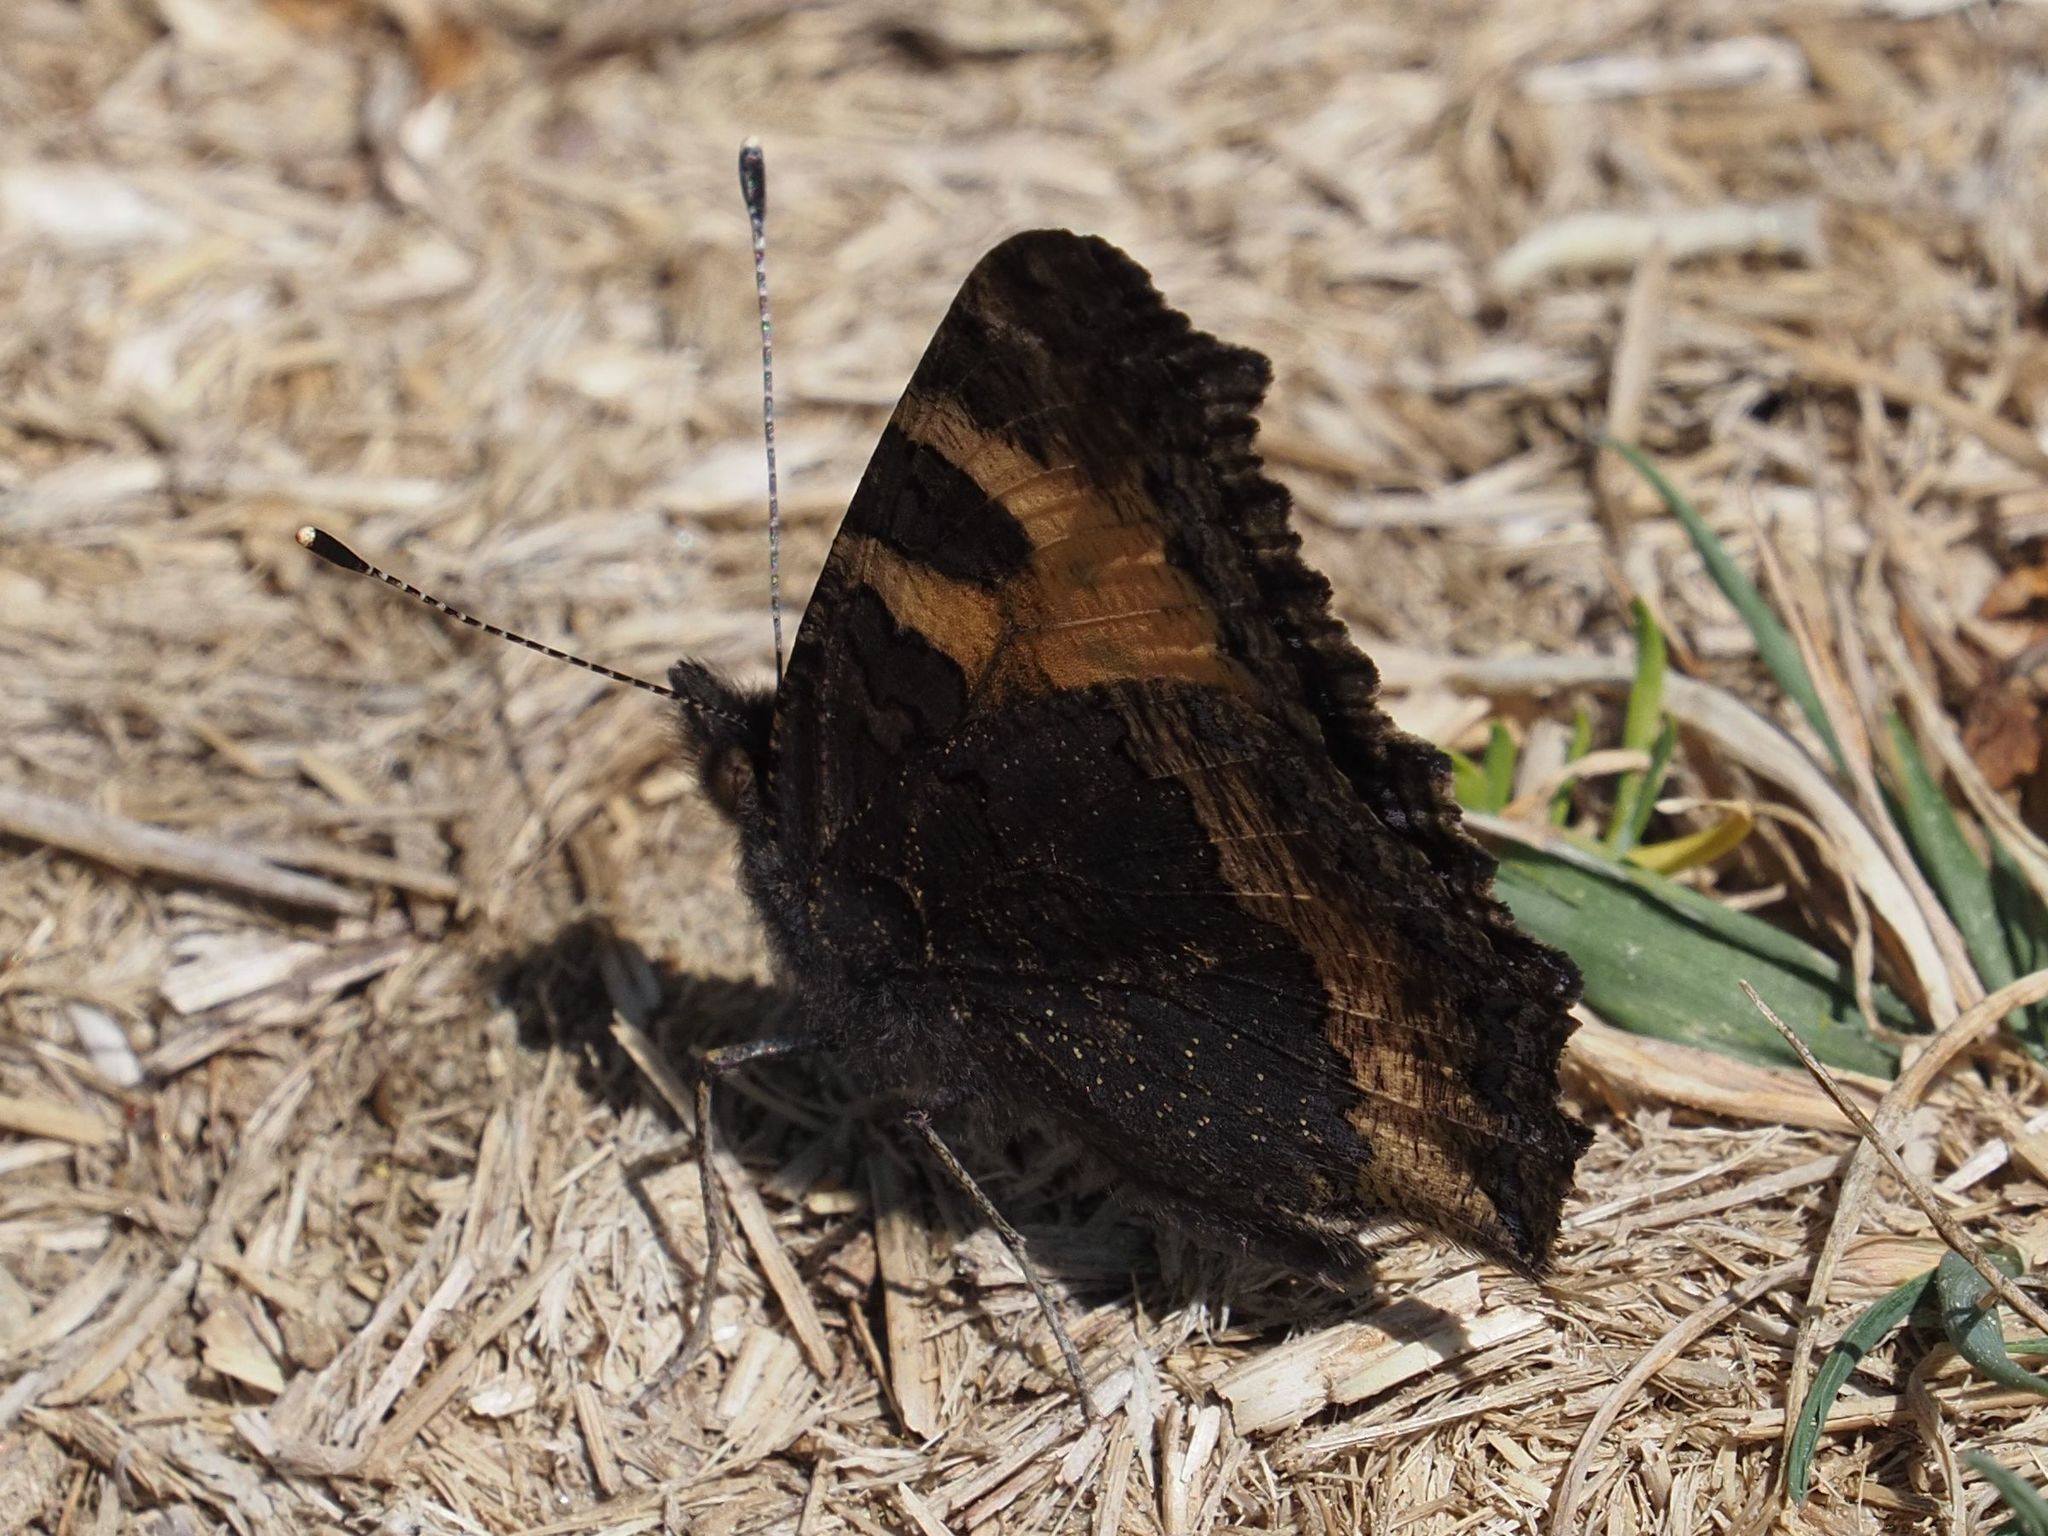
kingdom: Animalia
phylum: Arthropoda
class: Insecta
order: Lepidoptera
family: Nymphalidae
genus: Aglais
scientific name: Aglais urticae
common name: Small tortoiseshell
